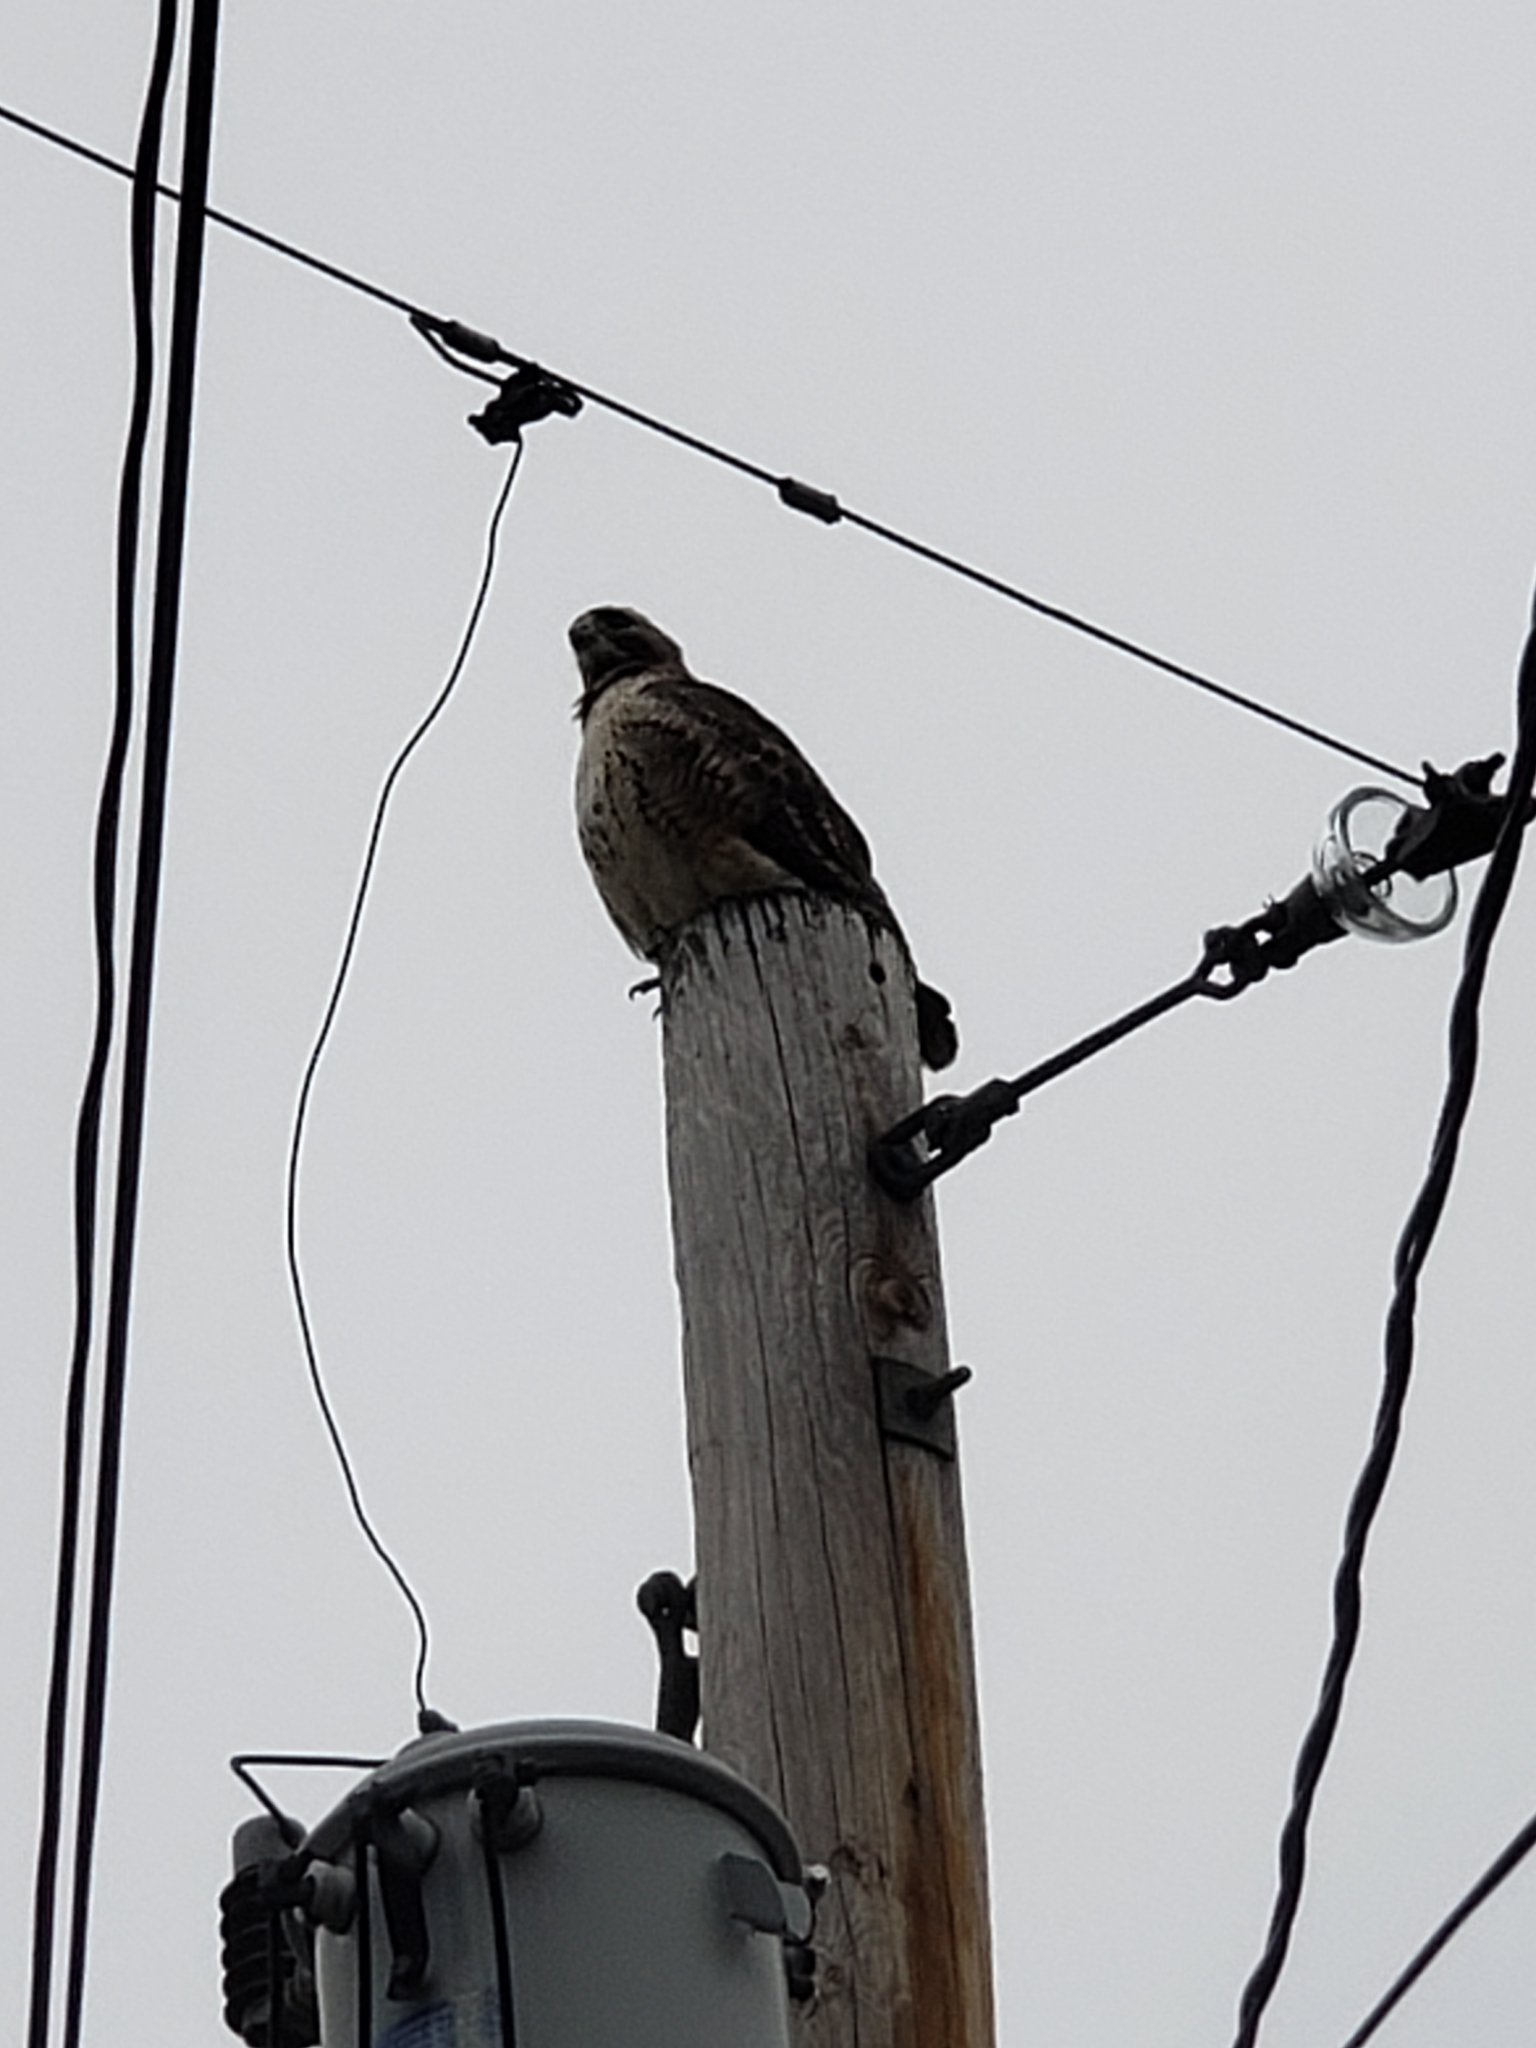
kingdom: Animalia
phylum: Chordata
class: Aves
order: Accipitriformes
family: Accipitridae
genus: Buteo
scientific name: Buteo jamaicensis
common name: Red-tailed hawk
